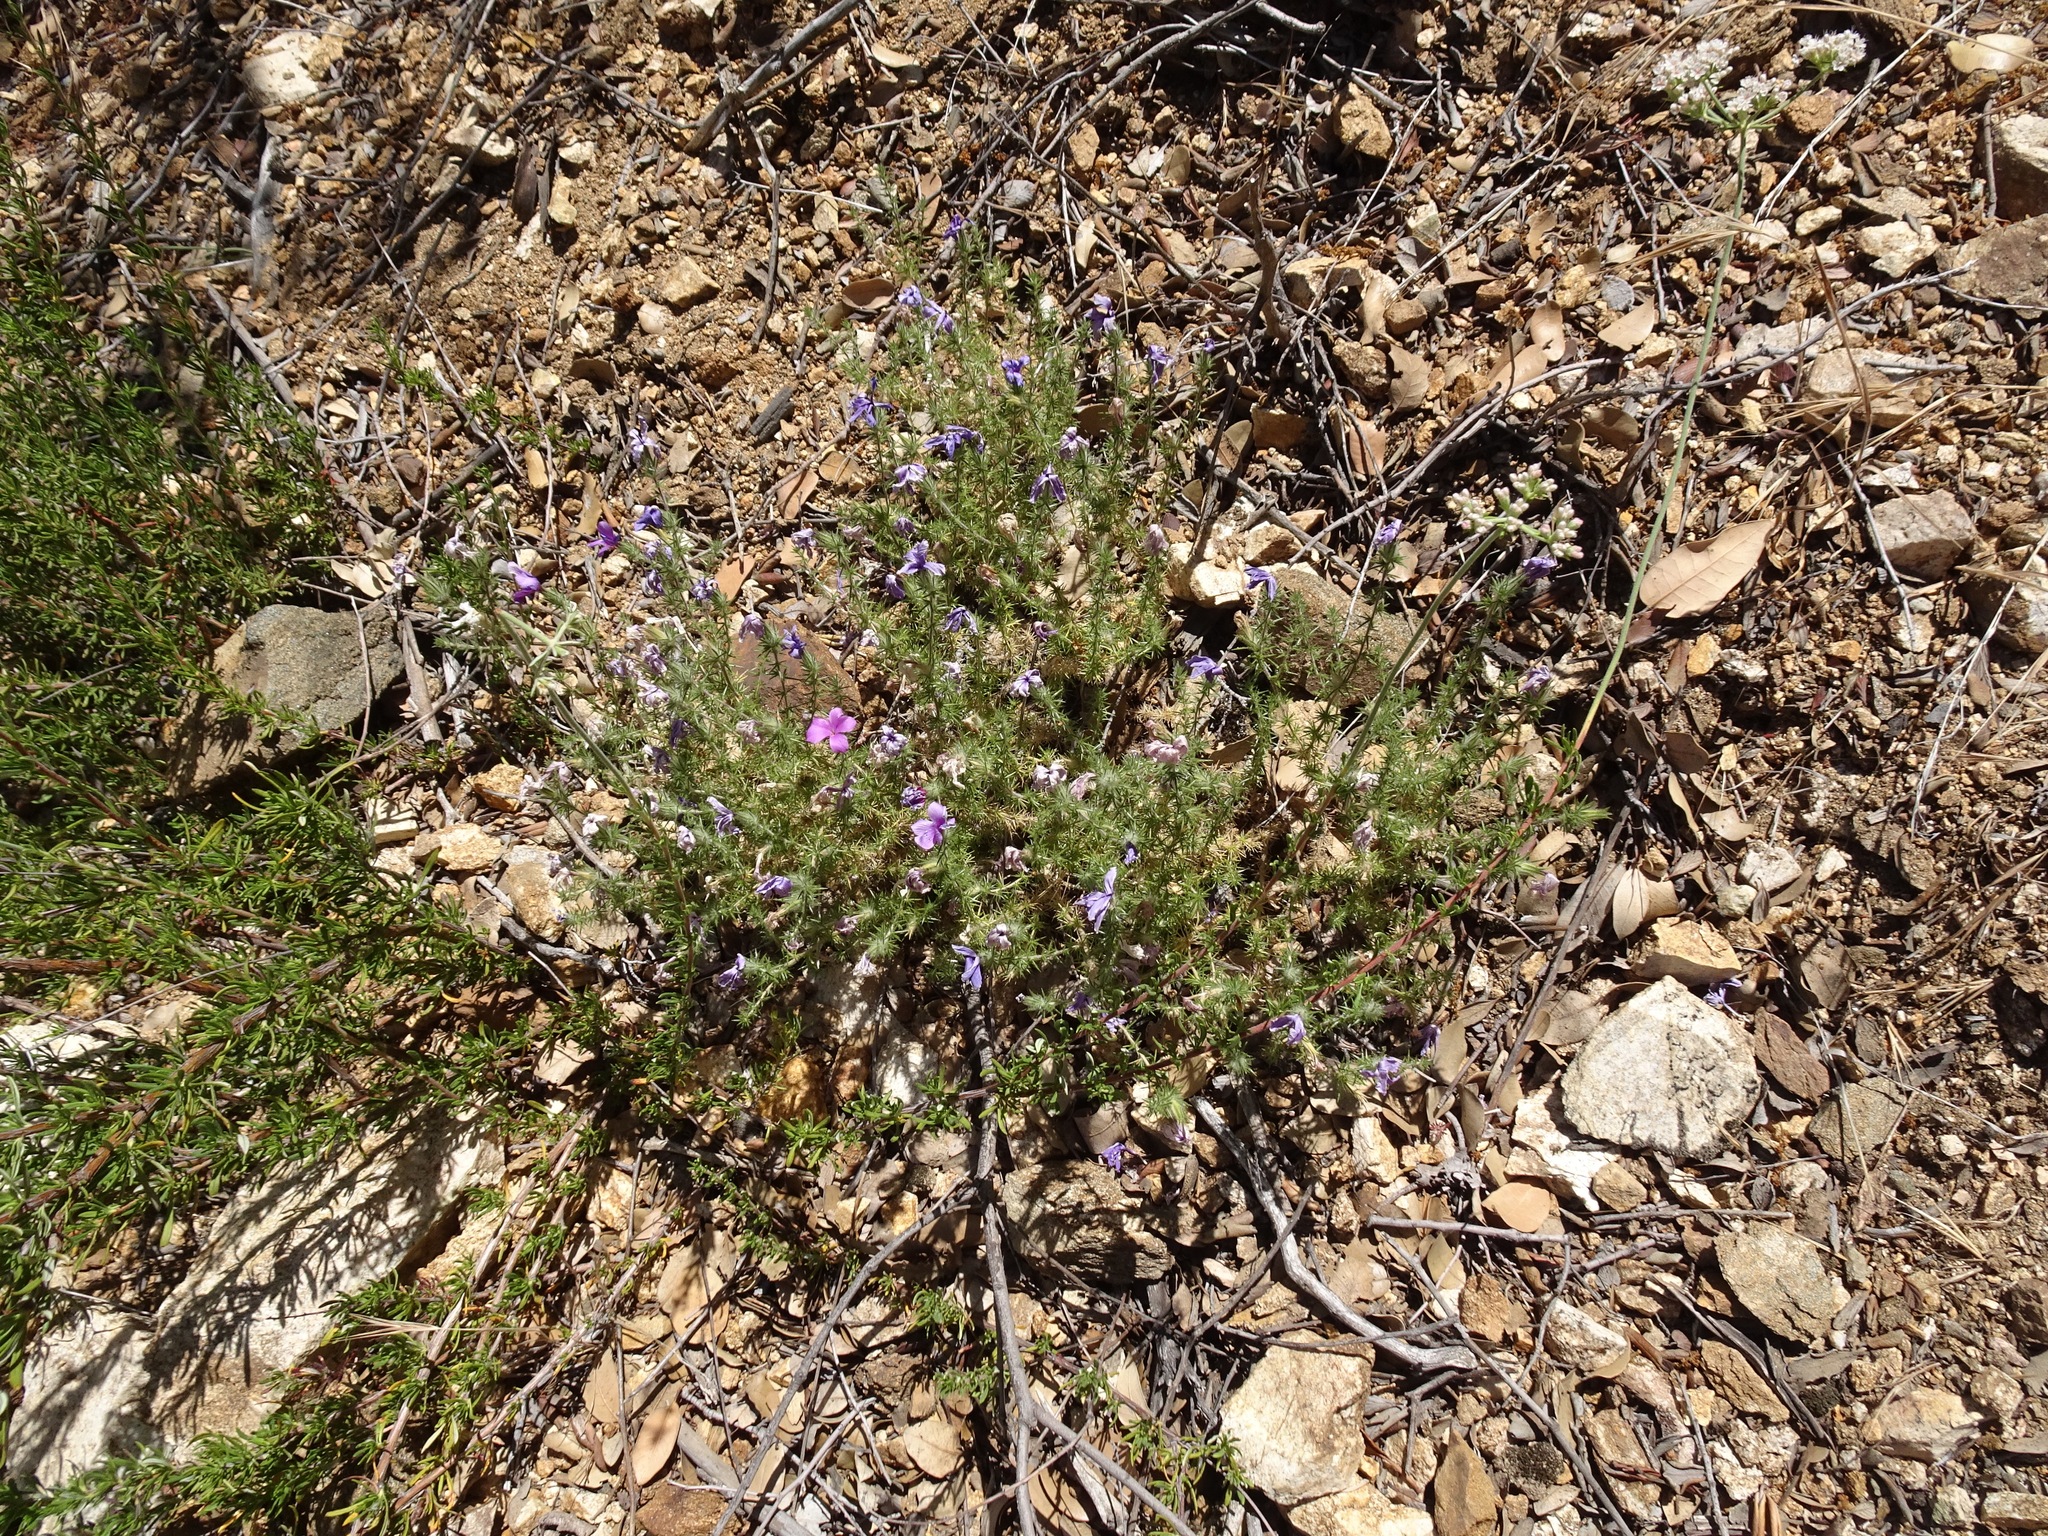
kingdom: Plantae
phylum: Tracheophyta
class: Magnoliopsida
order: Ericales
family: Polemoniaceae
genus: Linanthus
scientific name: Linanthus californicus
